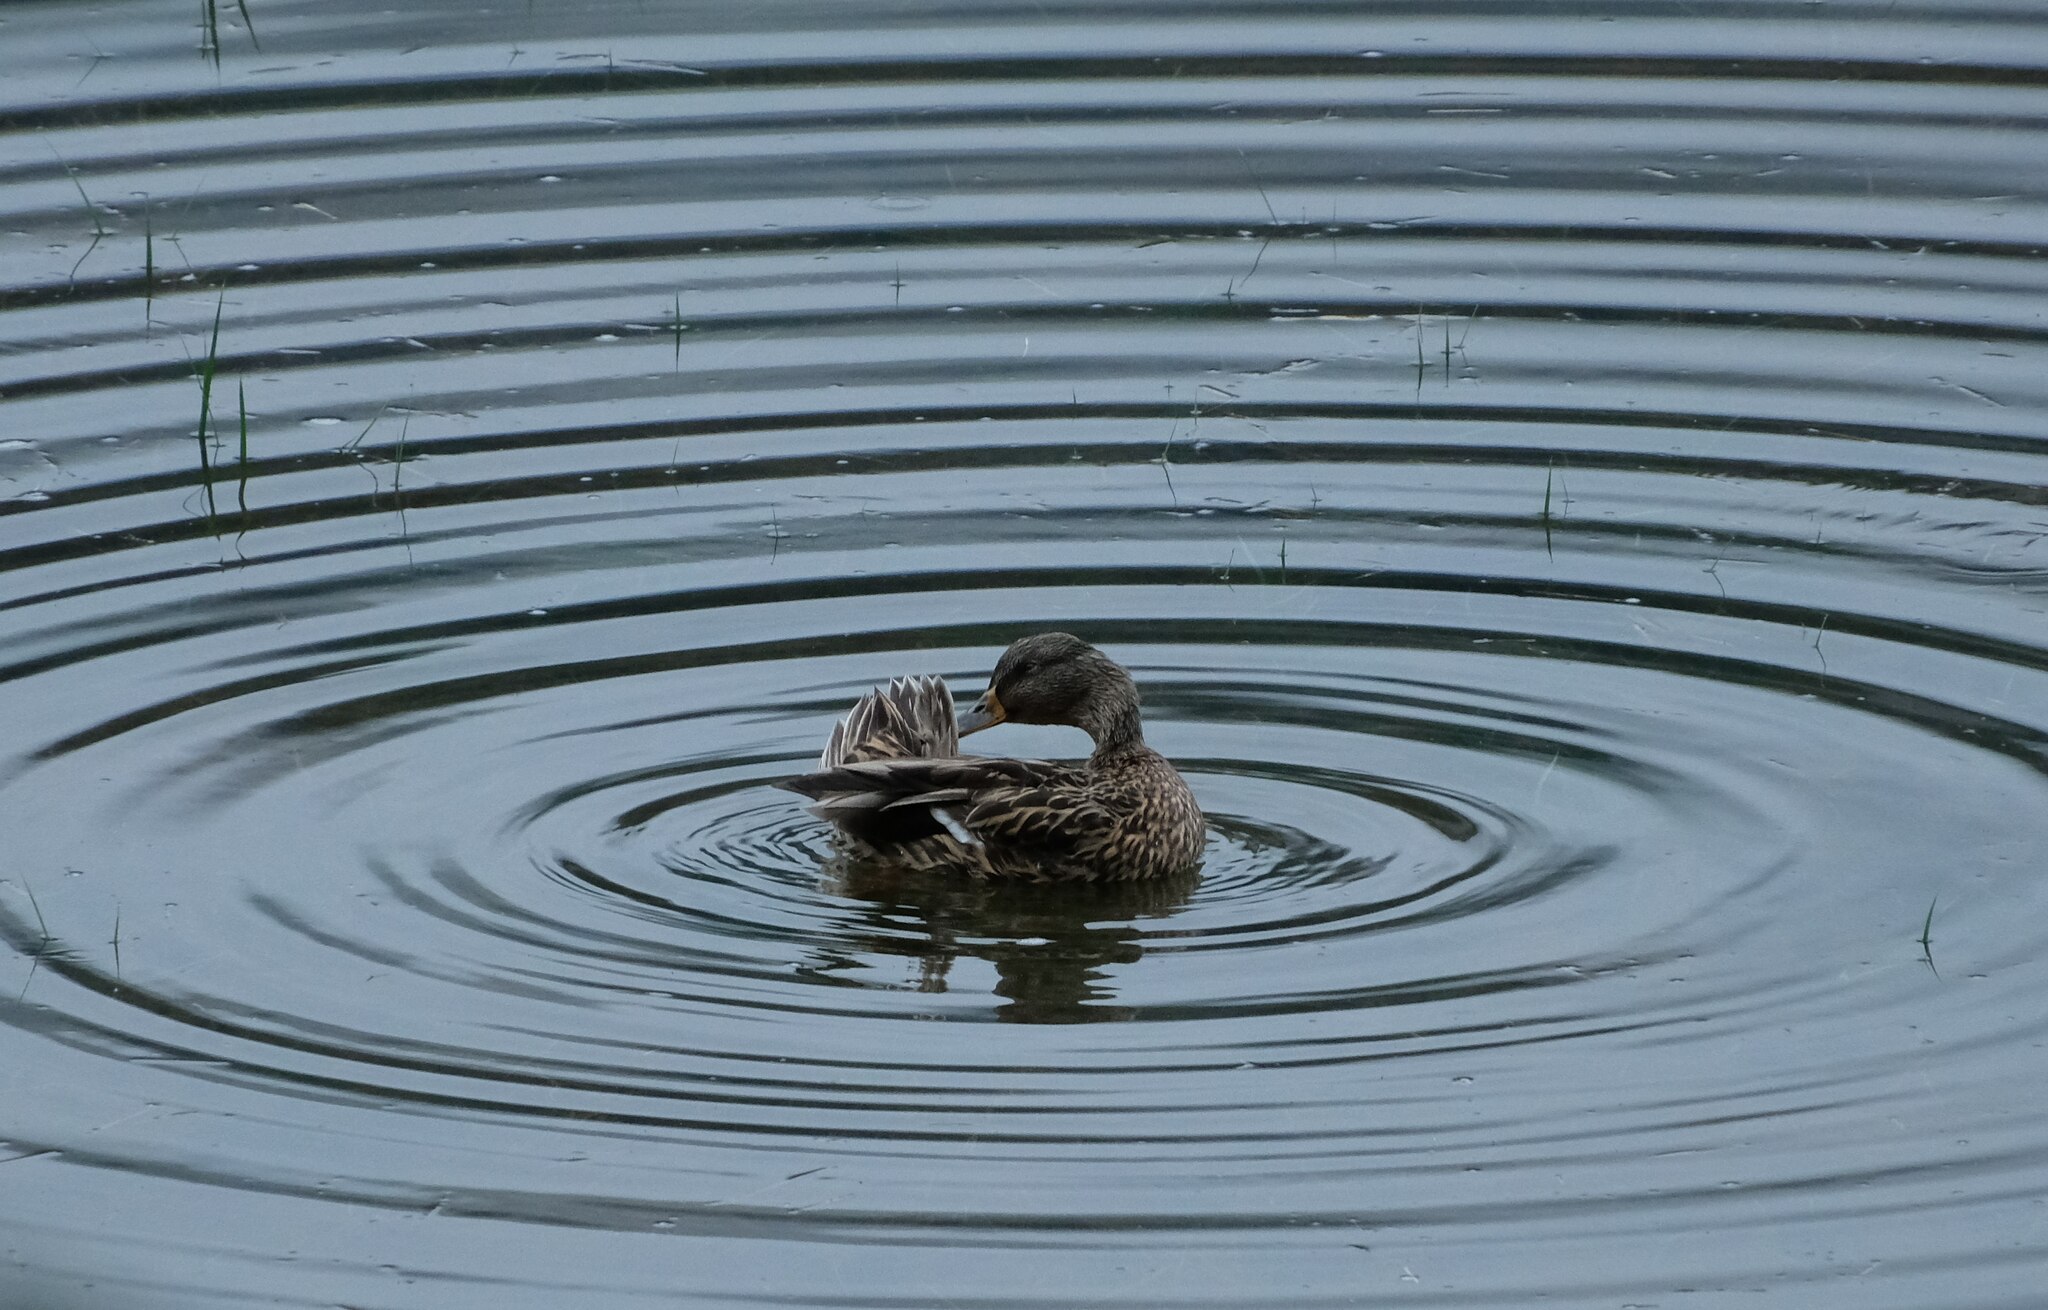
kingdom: Animalia
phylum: Chordata
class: Aves
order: Anseriformes
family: Anatidae
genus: Anas
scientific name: Anas platyrhynchos
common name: Mallard
